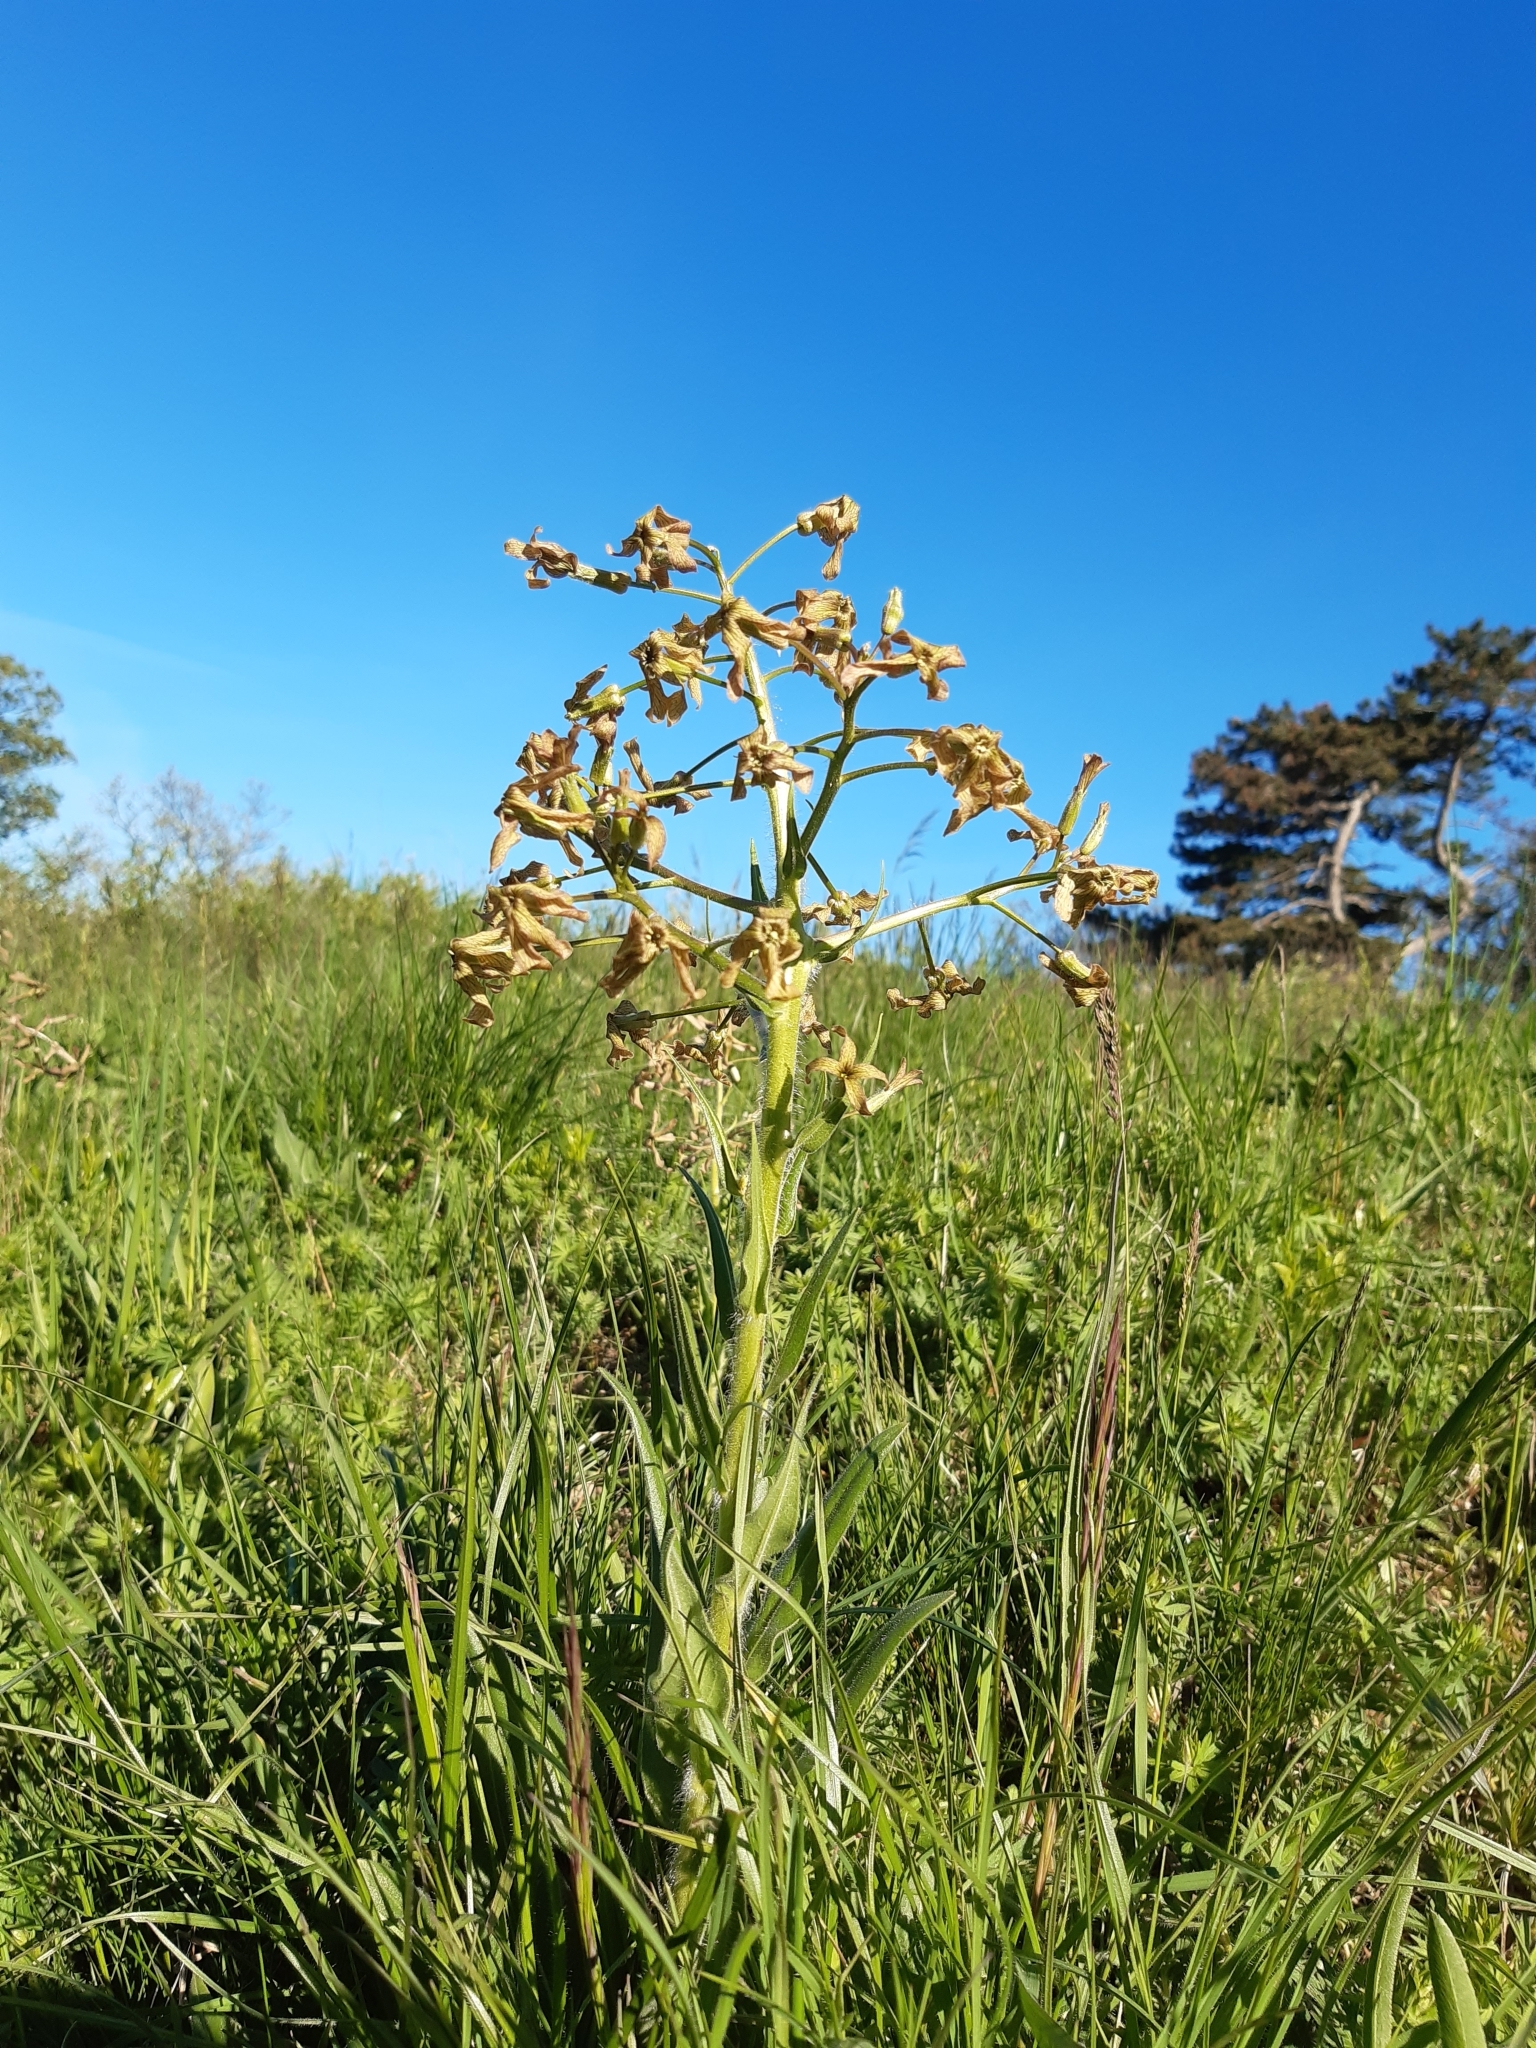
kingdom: Plantae
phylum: Tracheophyta
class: Magnoliopsida
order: Brassicales
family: Brassicaceae
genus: Hesperis
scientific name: Hesperis tristis
